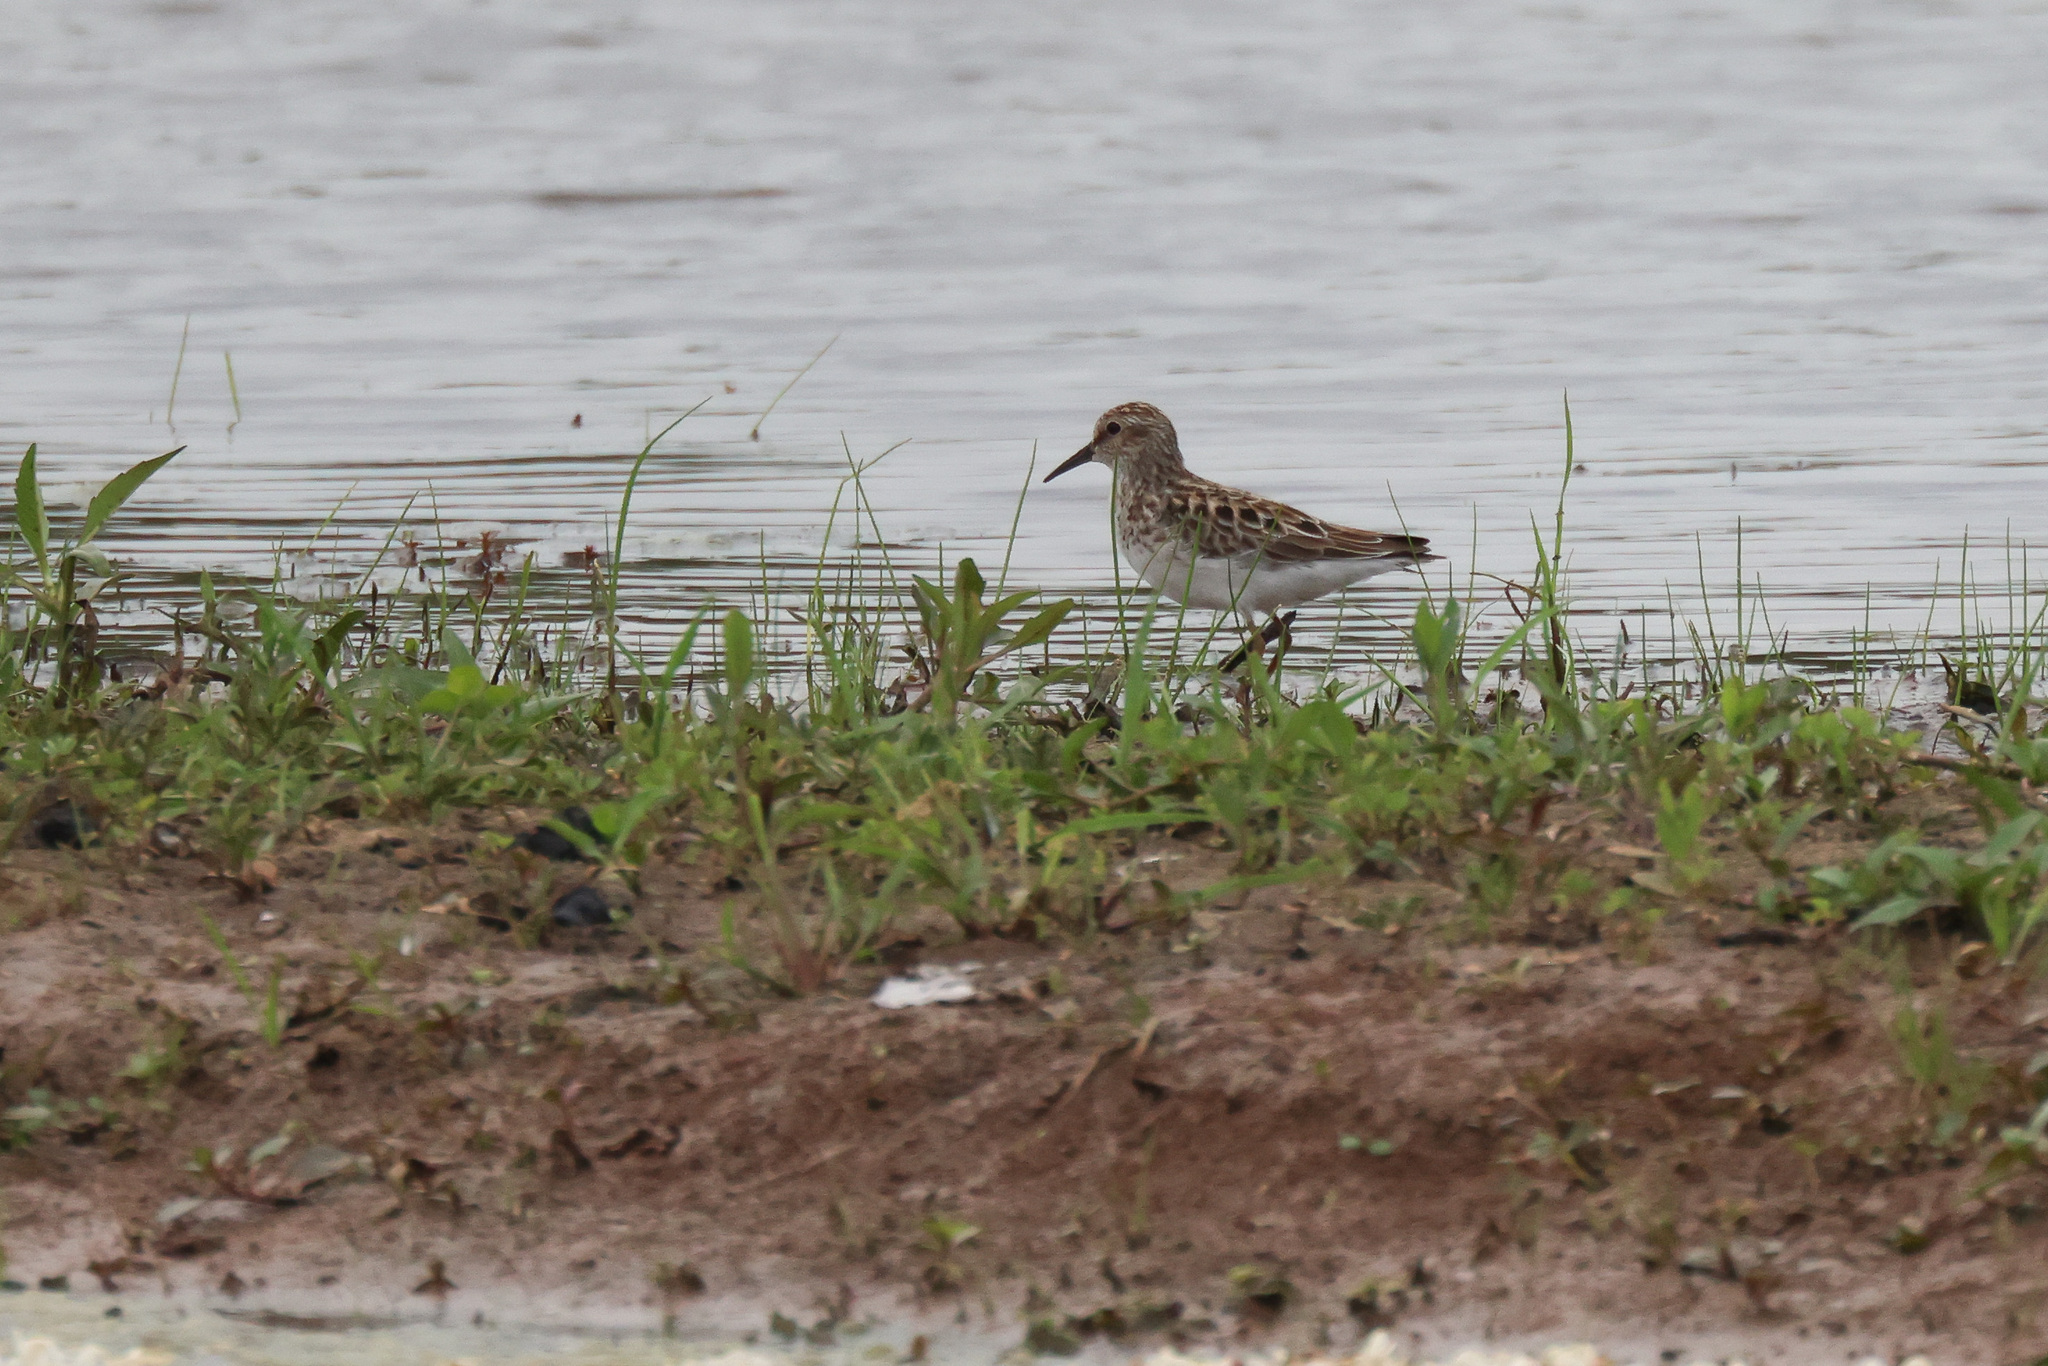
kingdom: Animalia
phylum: Chordata
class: Aves
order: Charadriiformes
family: Scolopacidae
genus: Calidris
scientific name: Calidris minutilla
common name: Least sandpiper
